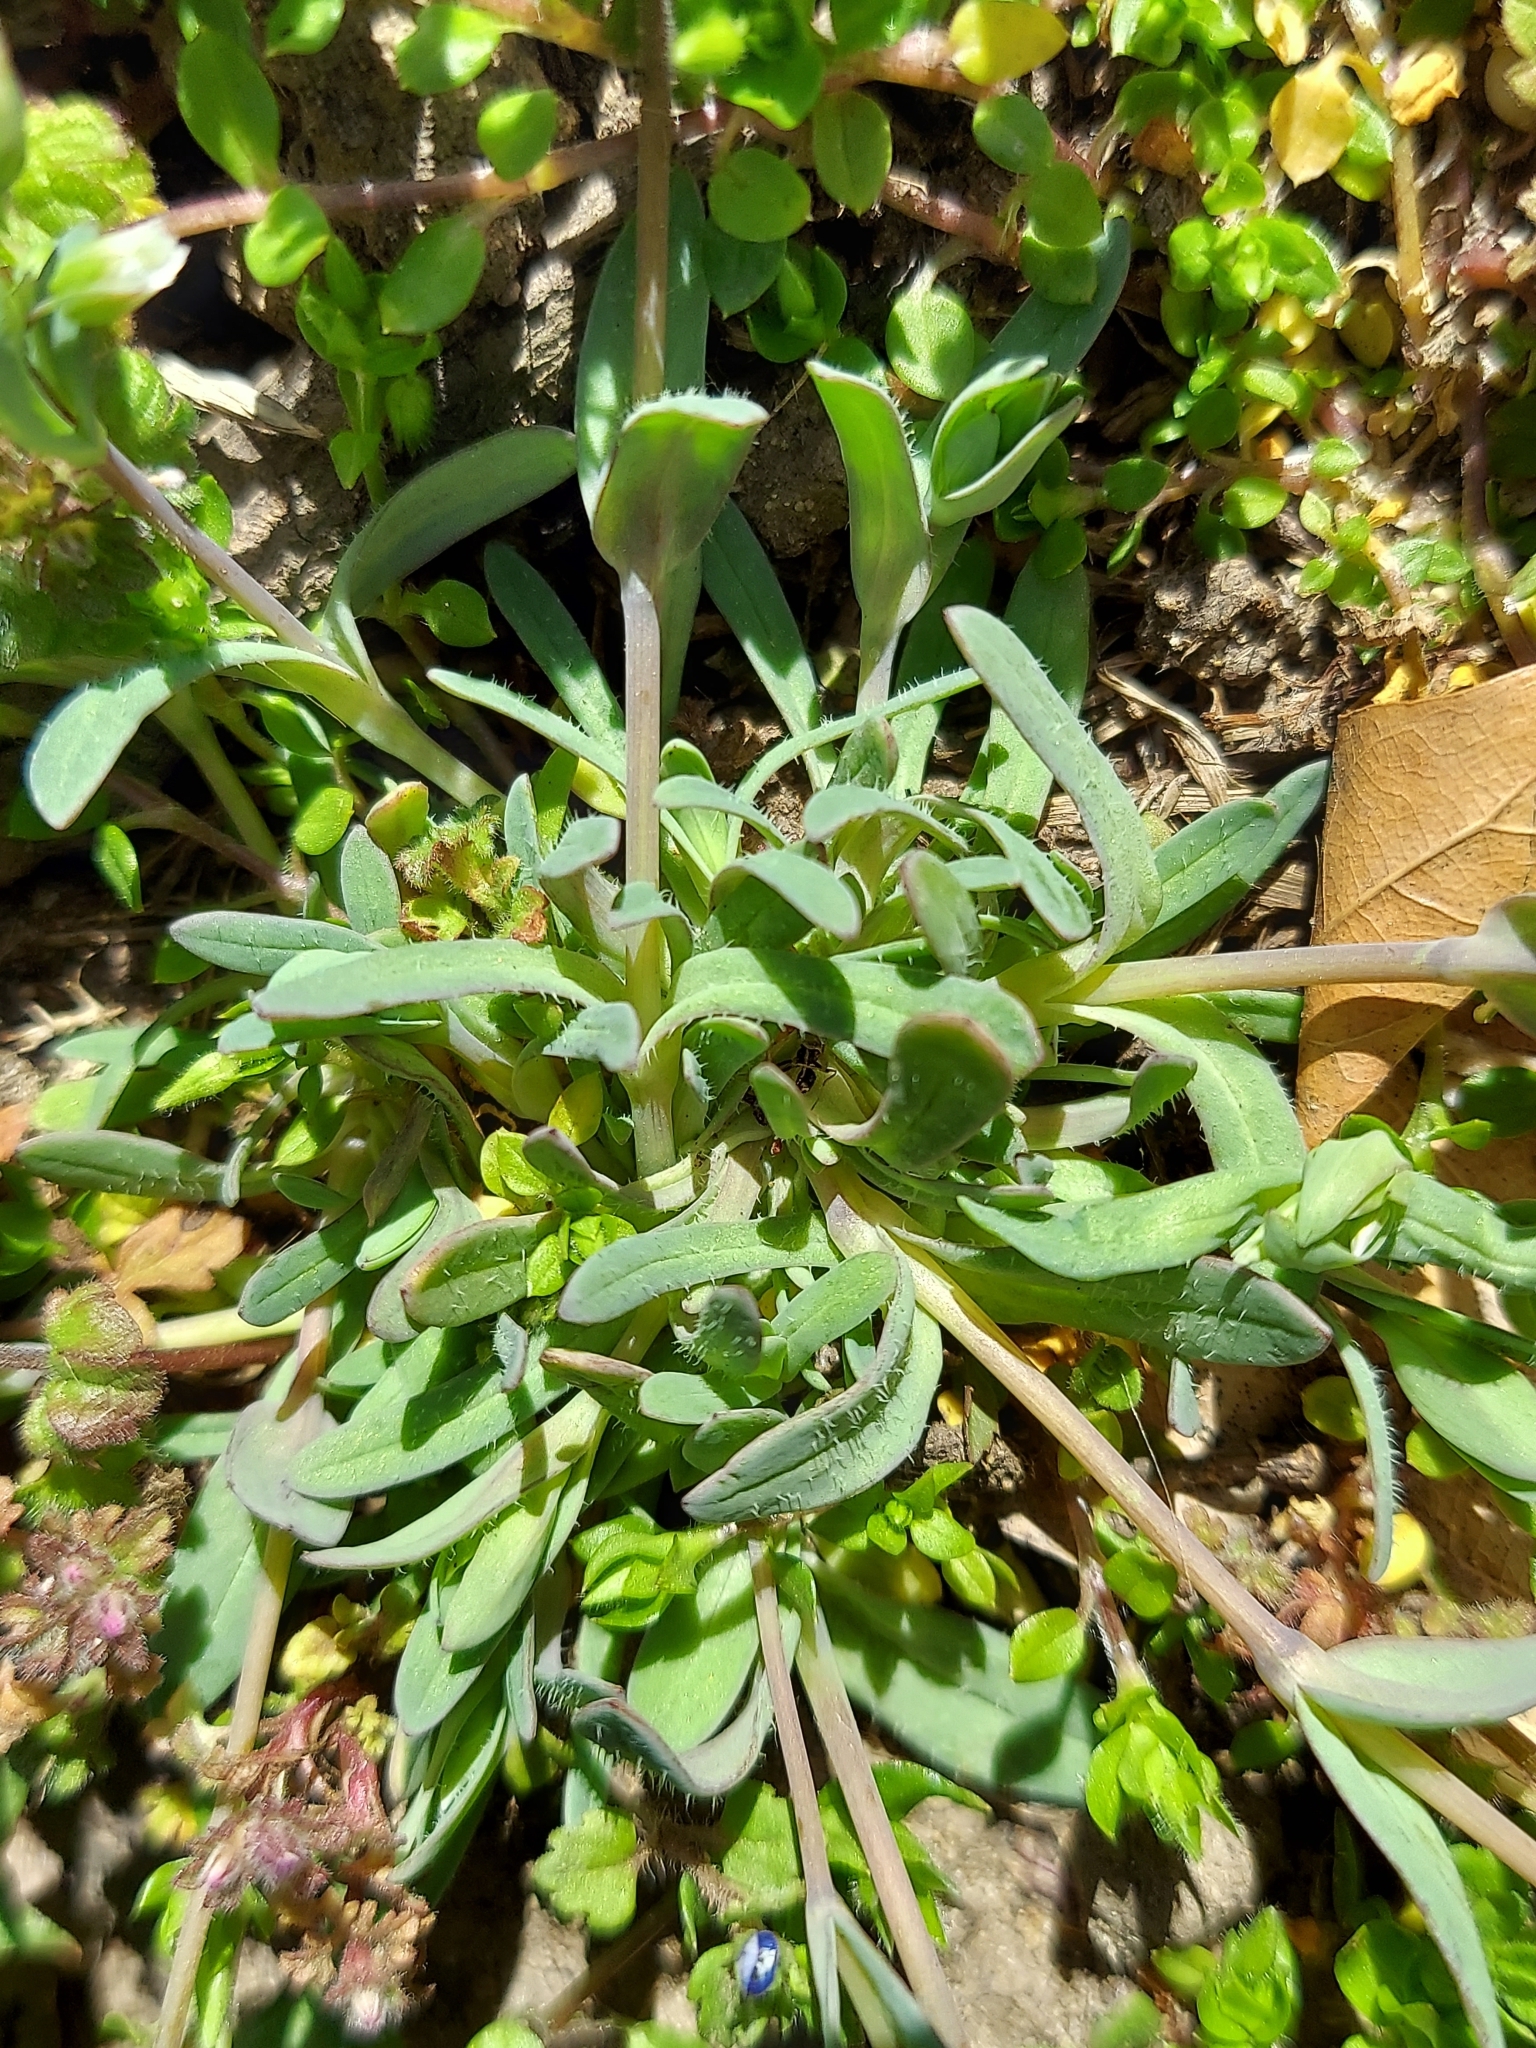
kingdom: Plantae
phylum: Tracheophyta
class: Magnoliopsida
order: Caryophyllales
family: Caryophyllaceae
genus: Holosteum
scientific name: Holosteum umbellatum
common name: Jagged chickweed
